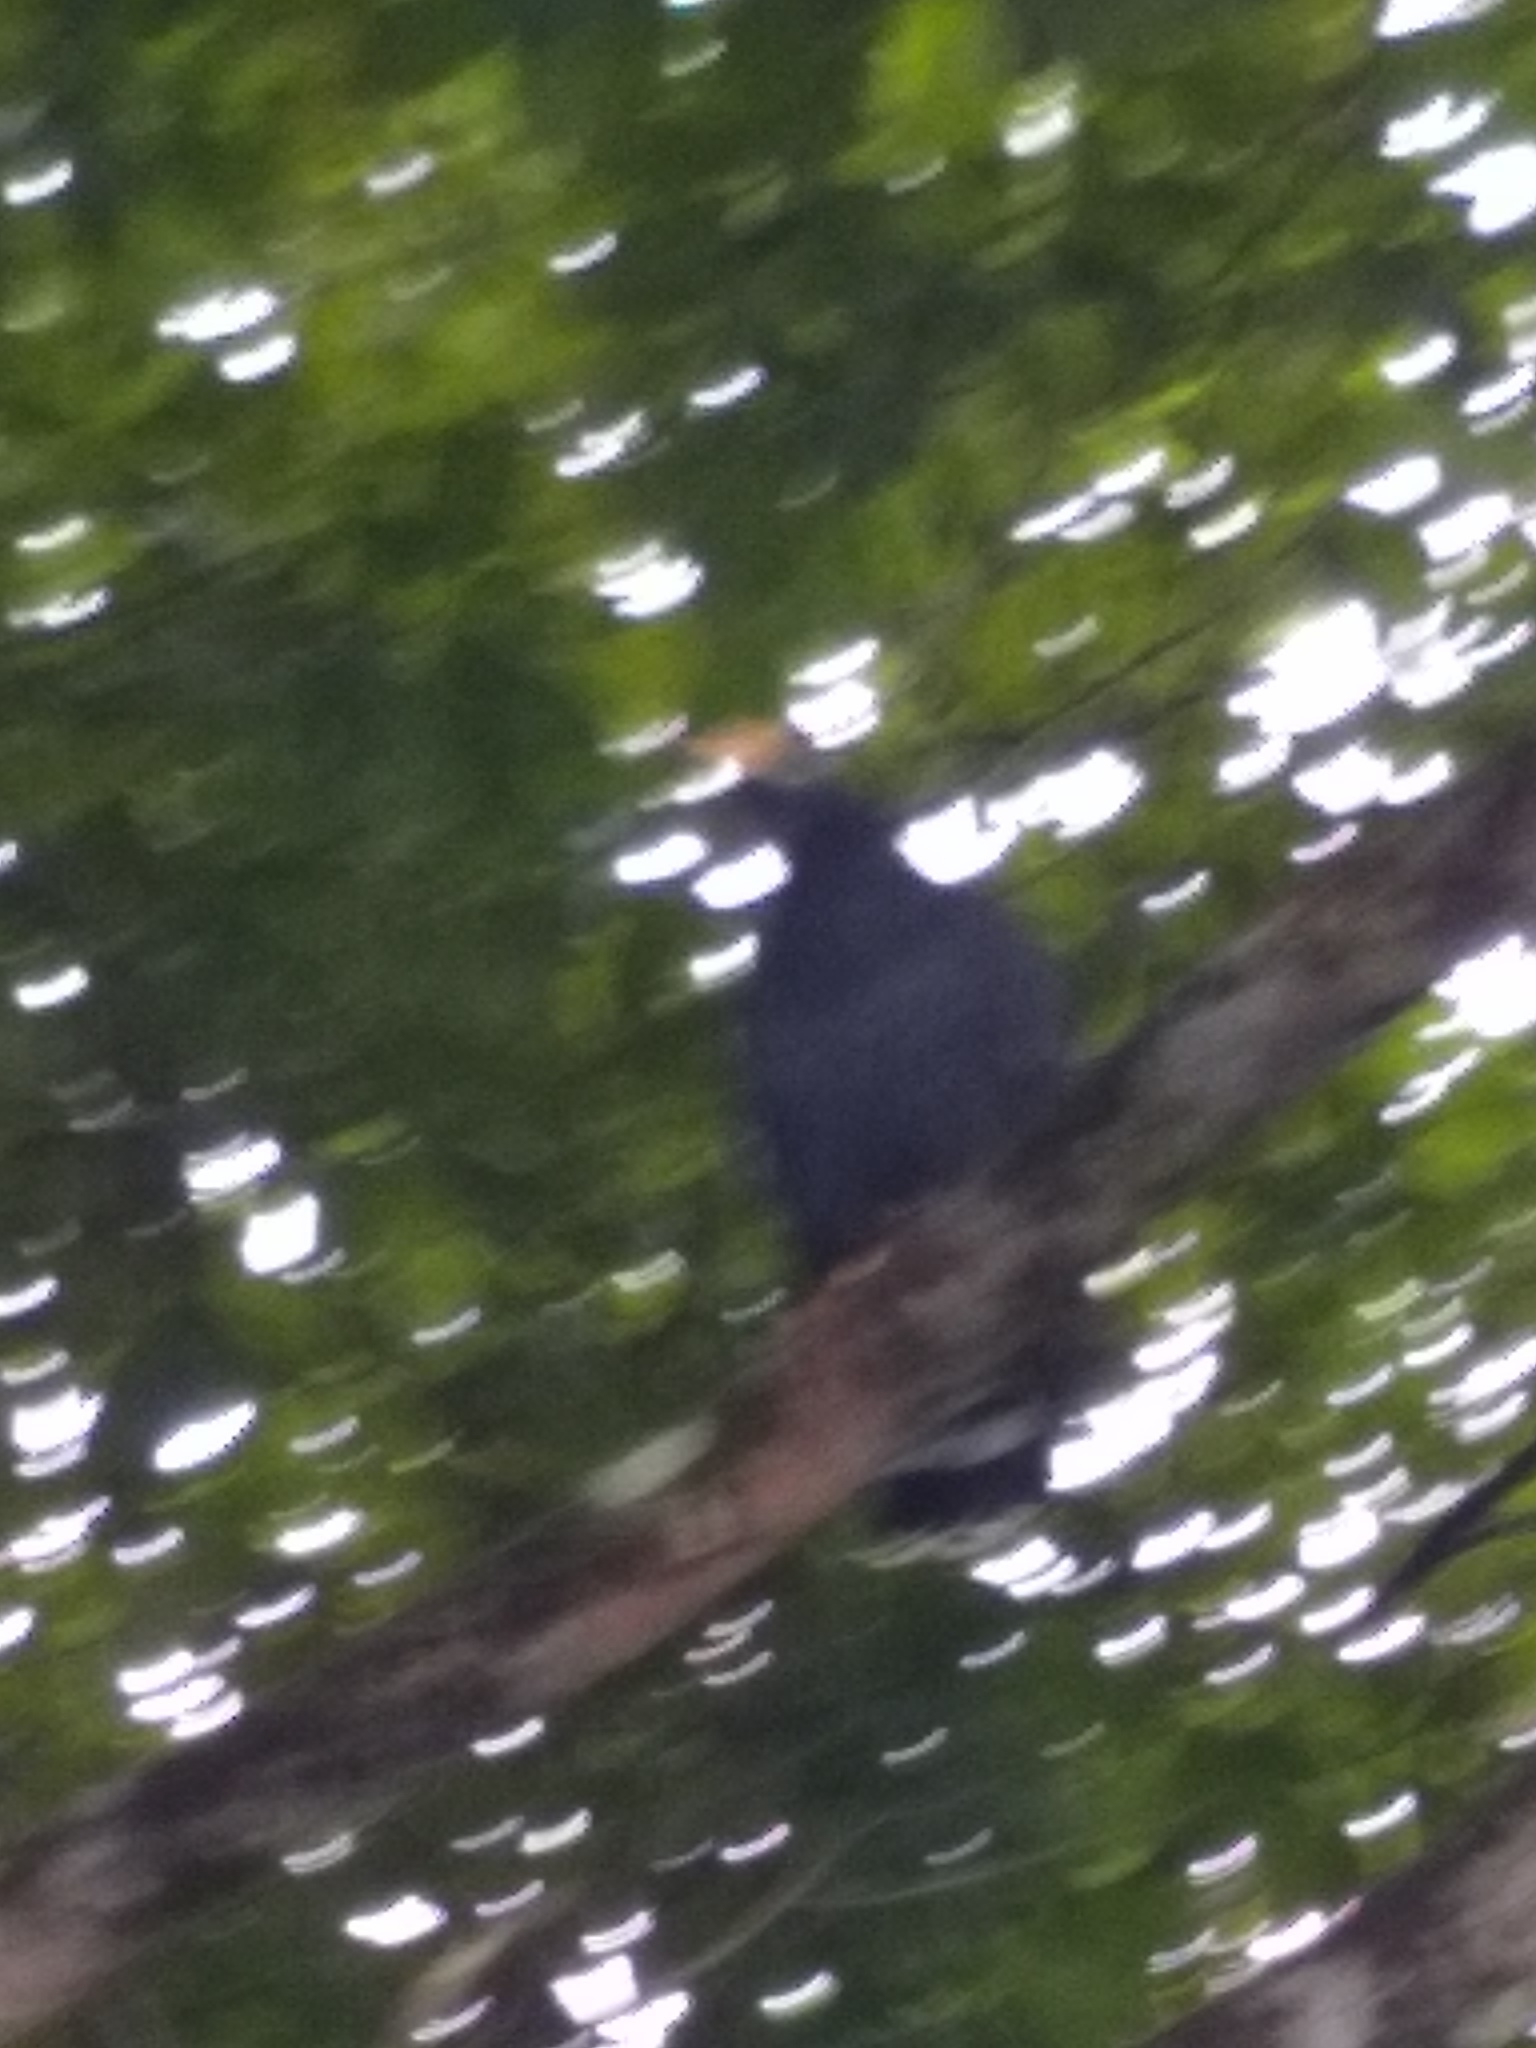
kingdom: Animalia
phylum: Chordata
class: Aves
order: Accipitriformes
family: Accipitridae
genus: Buteogallus
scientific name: Buteogallus anthracinus
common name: Common black hawk
